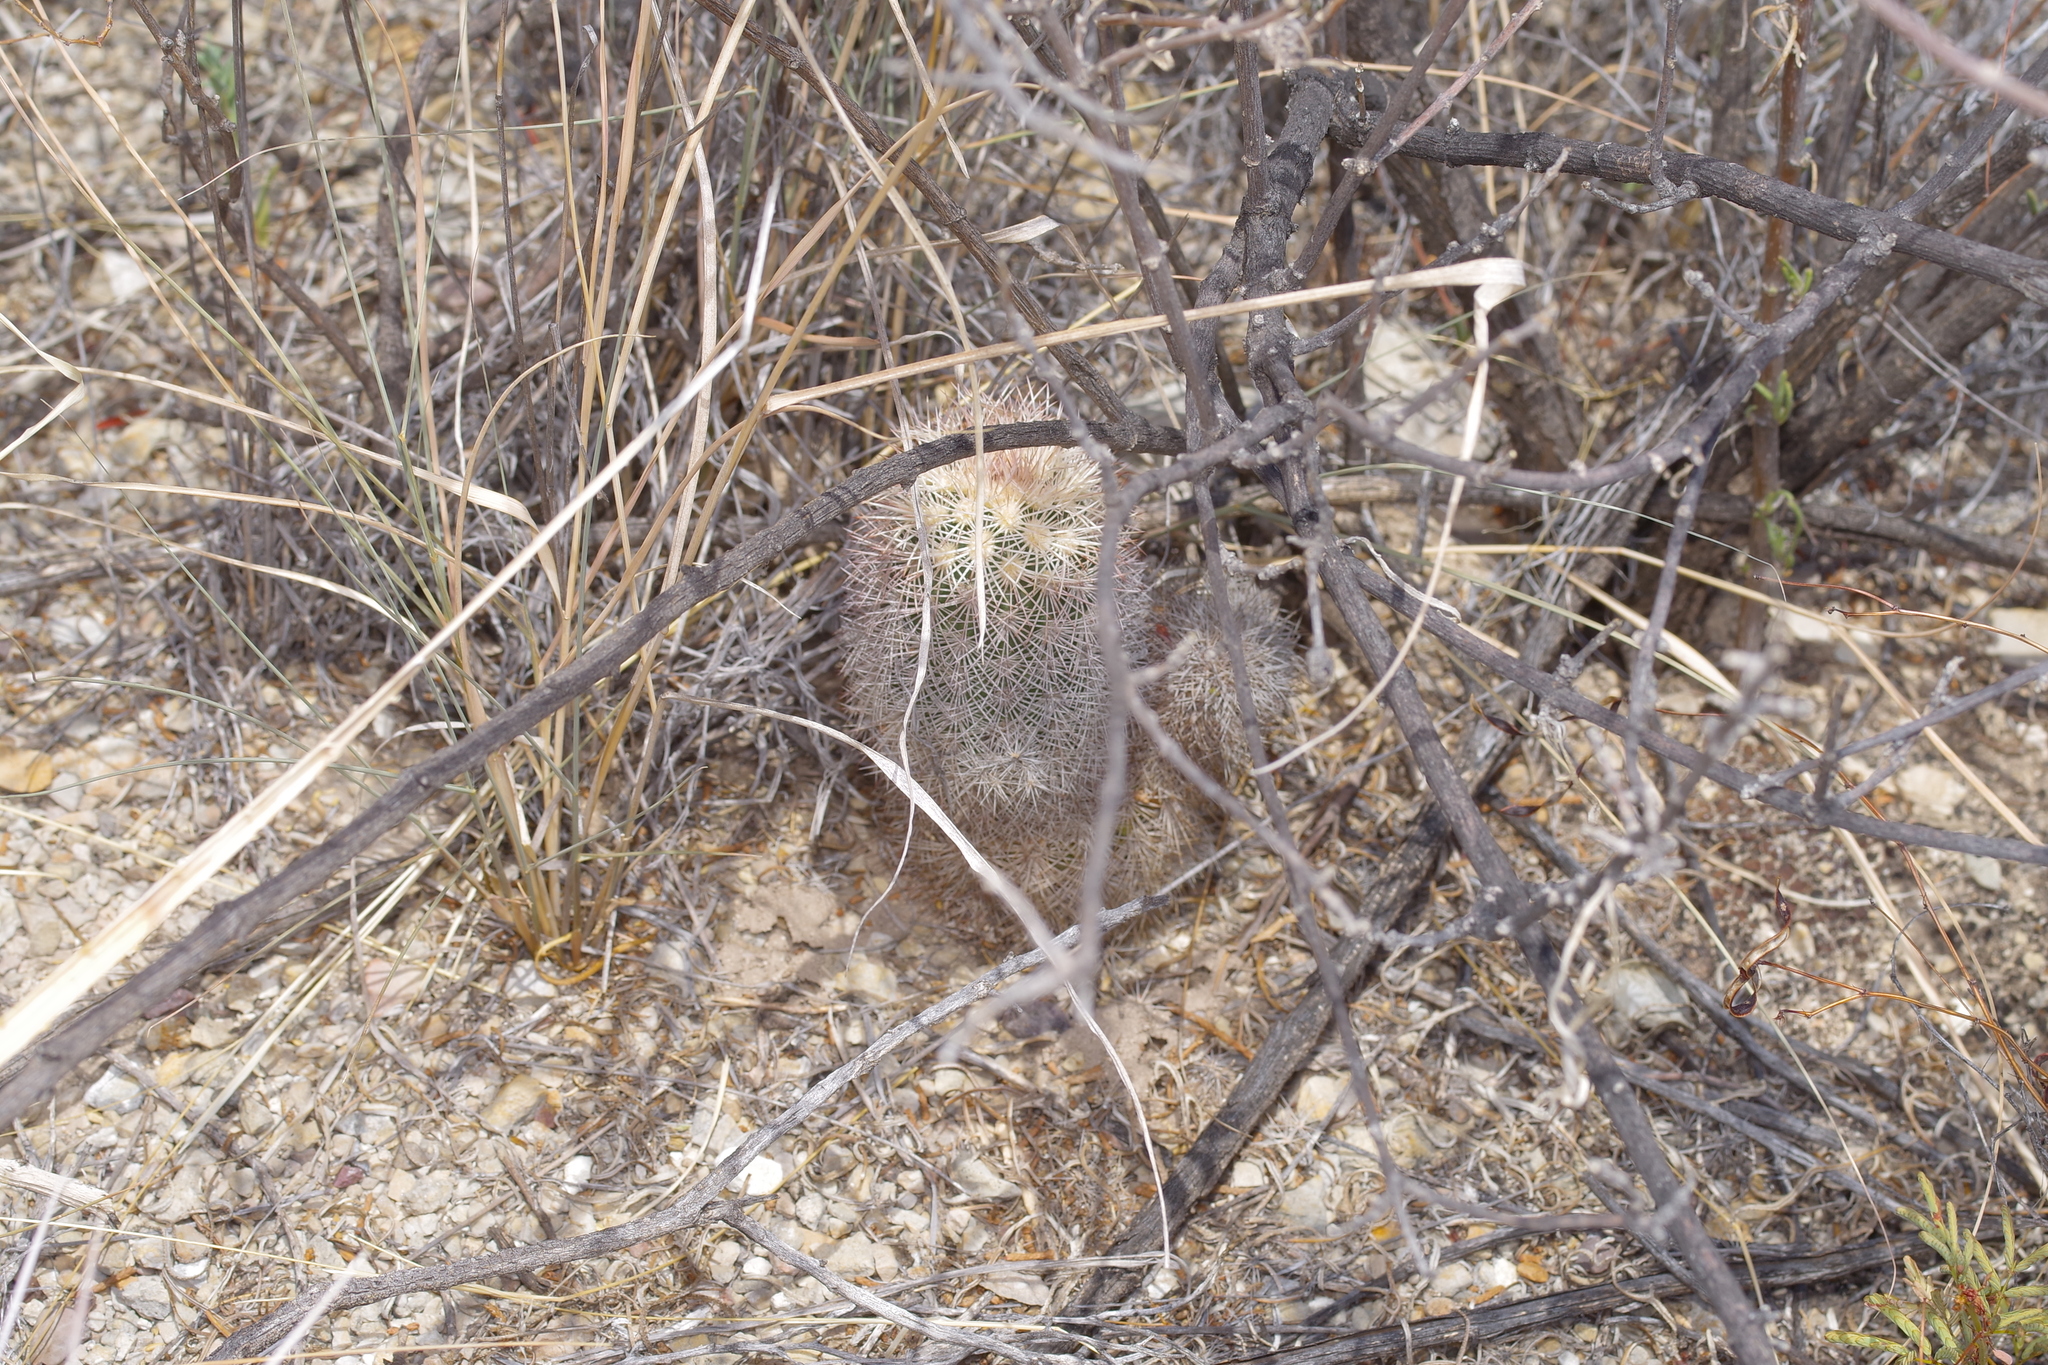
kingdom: Plantae
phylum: Tracheophyta
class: Magnoliopsida
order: Caryophyllales
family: Cactaceae
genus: Echinocereus
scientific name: Echinocereus dasyacanthus
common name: Spiny hedgehog cactus
